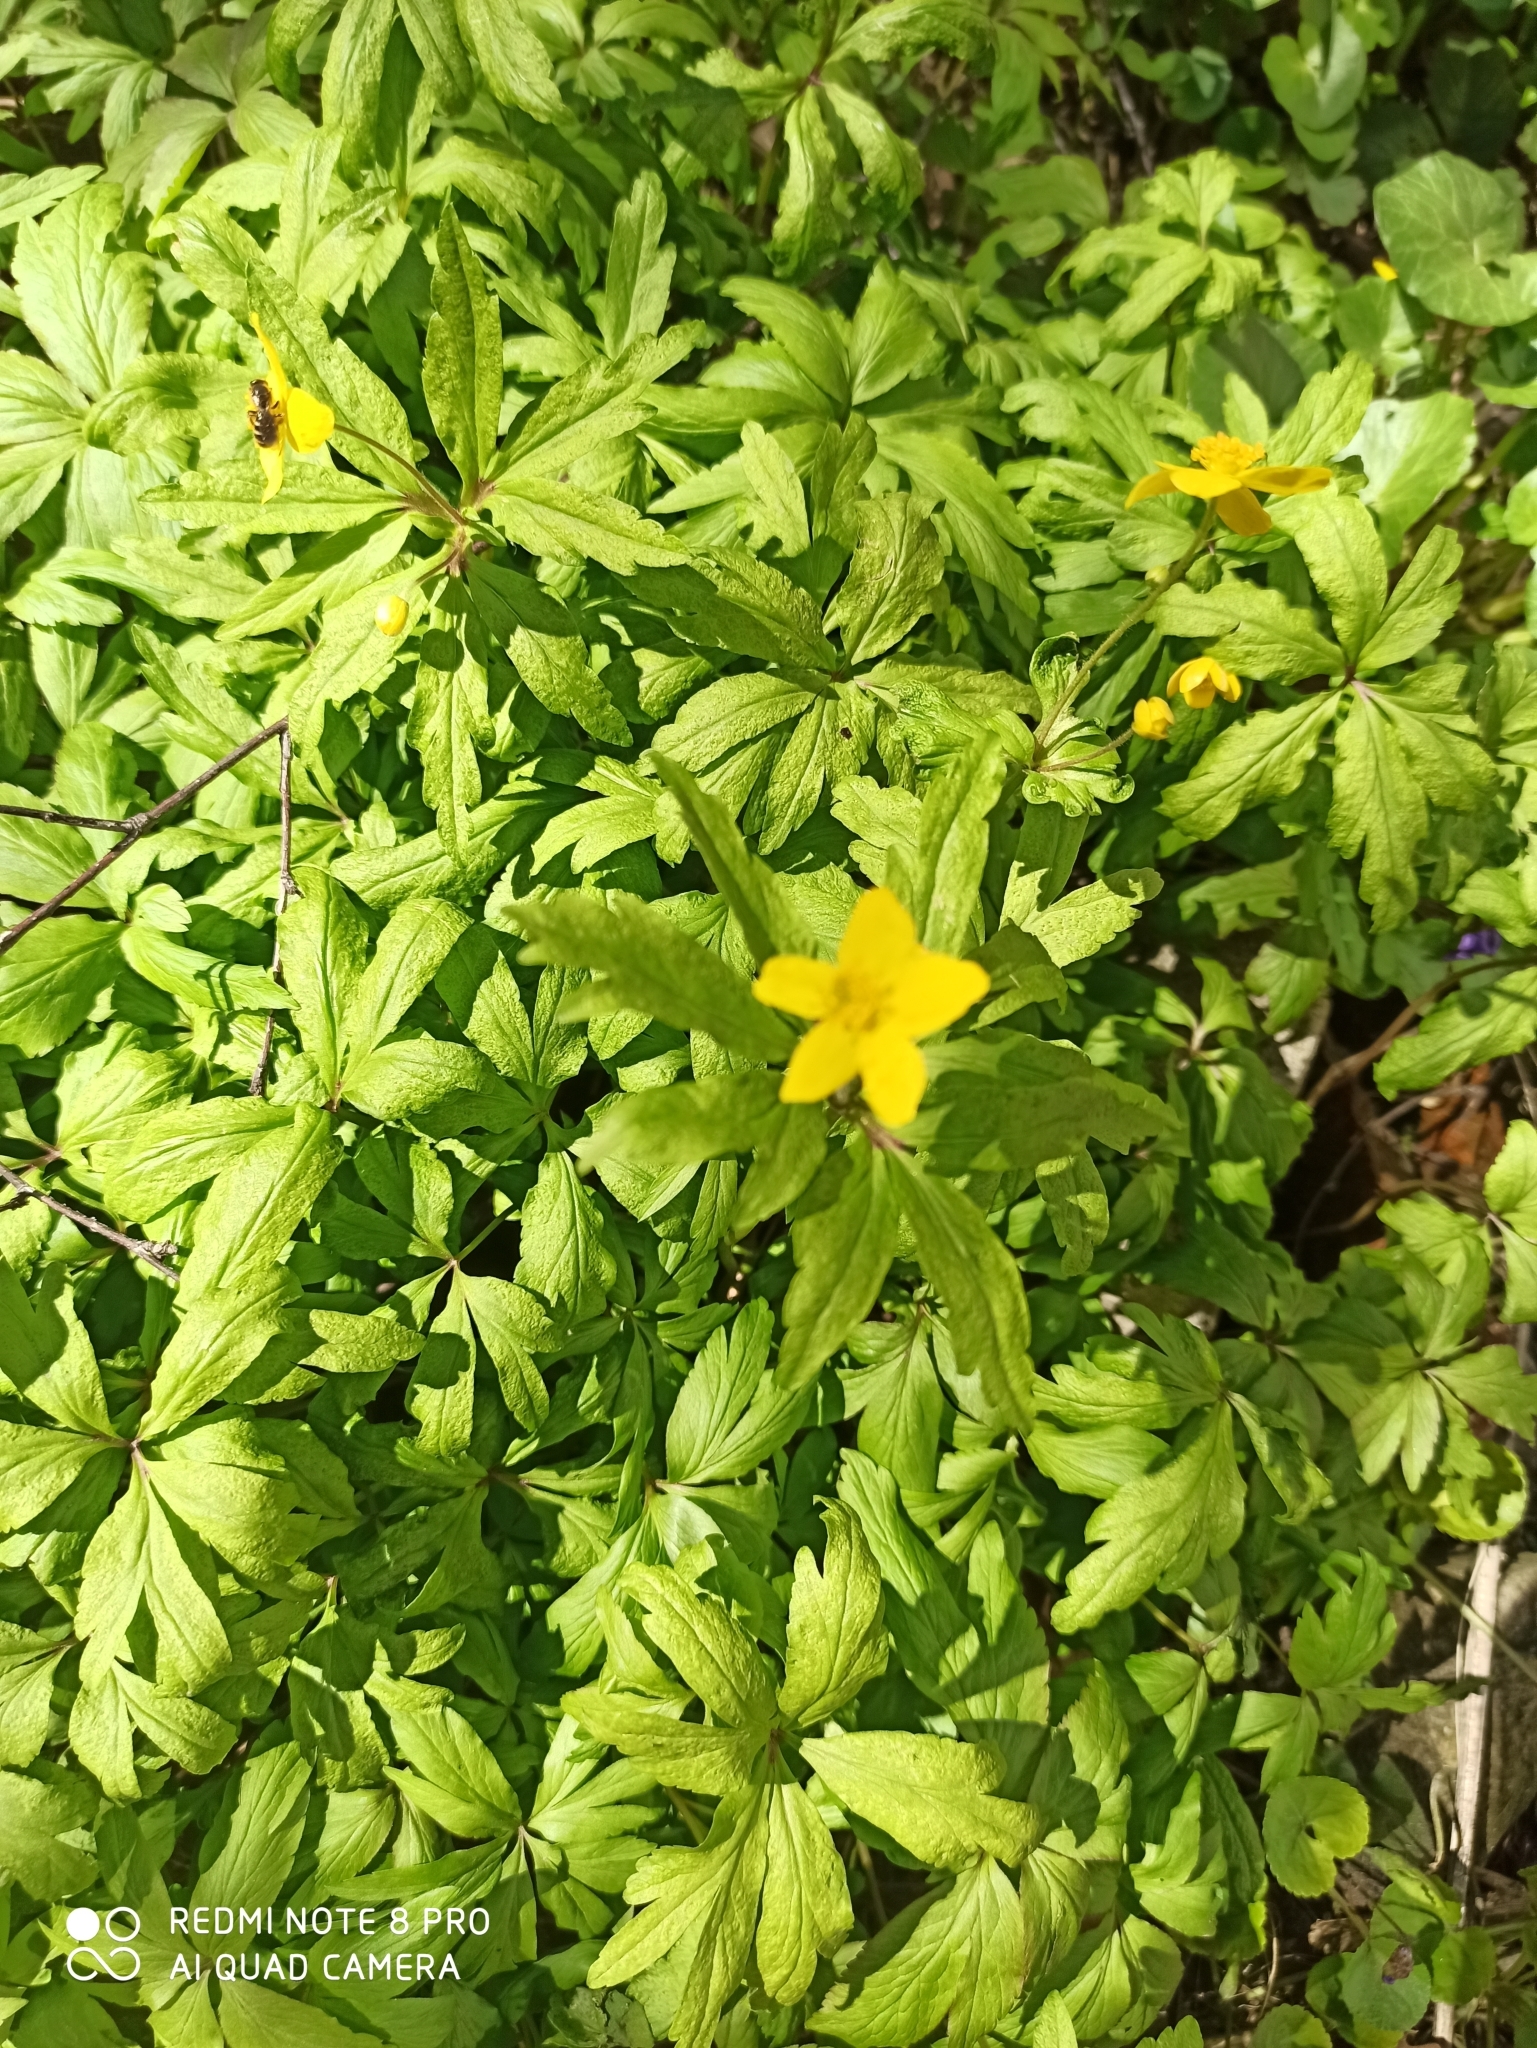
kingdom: Plantae
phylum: Tracheophyta
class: Magnoliopsida
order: Ranunculales
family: Ranunculaceae
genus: Anemone
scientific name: Anemone ranunculoides
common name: Yellow anemone
